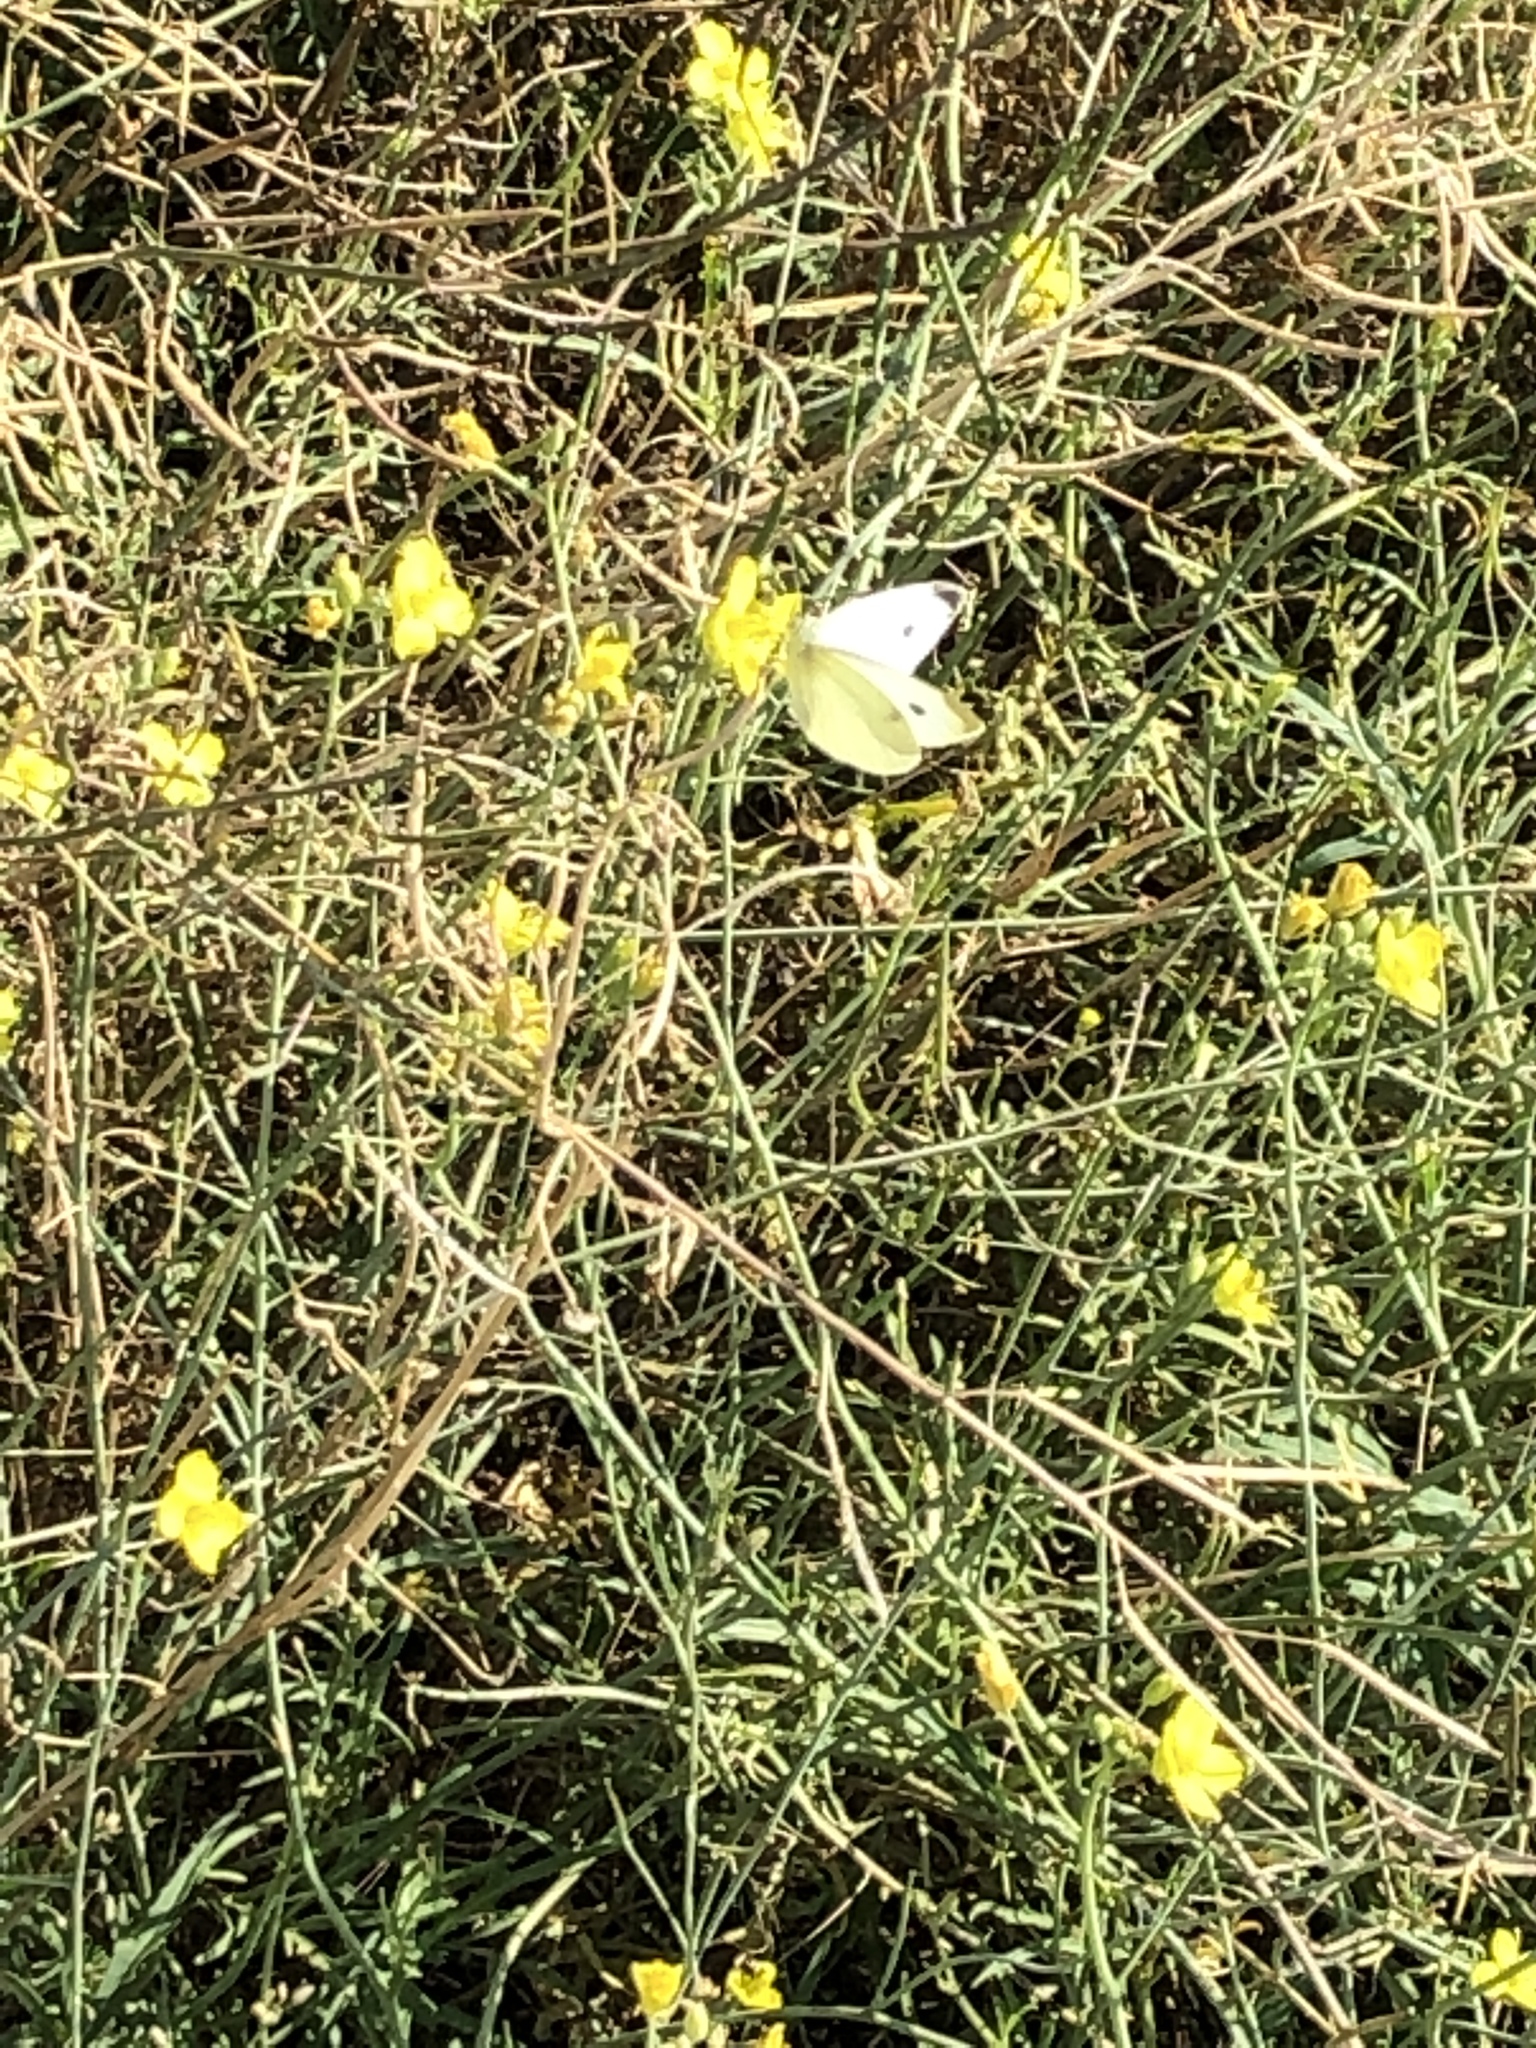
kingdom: Animalia
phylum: Arthropoda
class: Insecta
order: Lepidoptera
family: Pieridae
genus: Pieris
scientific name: Pieris rapae
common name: Small white
